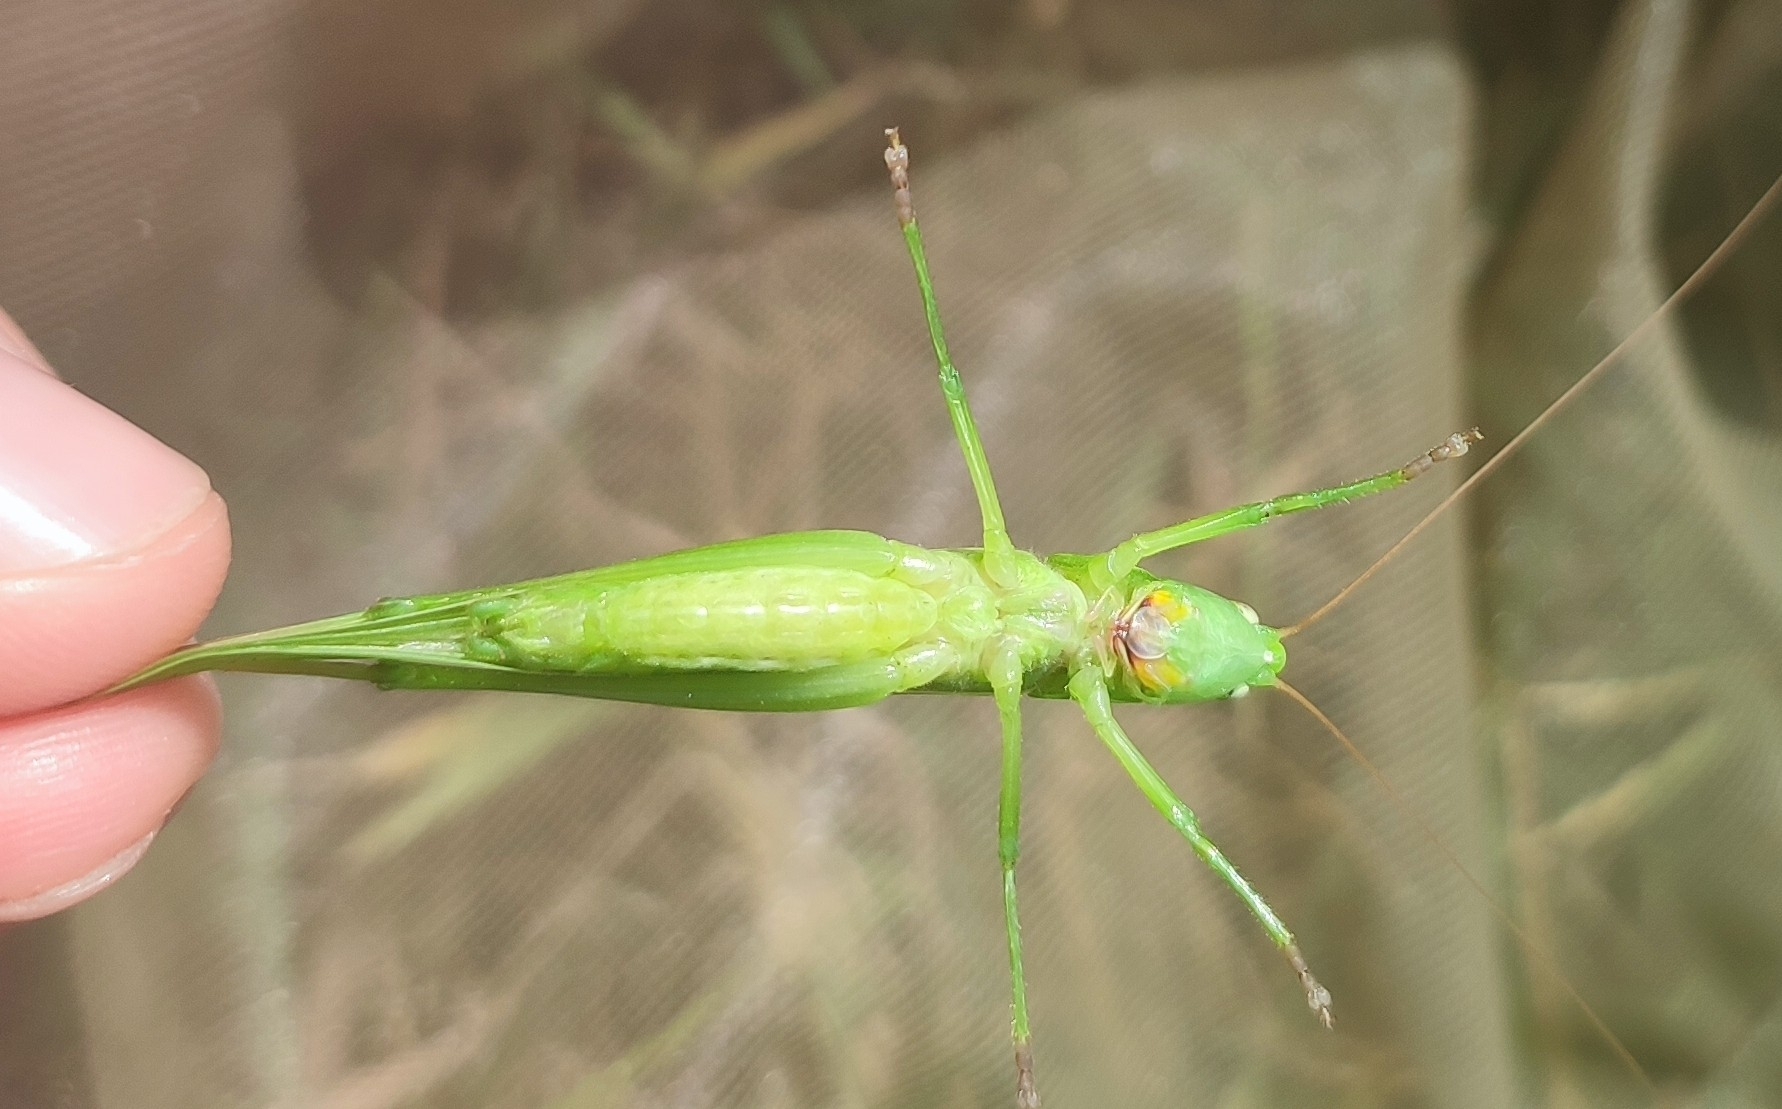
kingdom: Animalia
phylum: Arthropoda
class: Insecta
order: Orthoptera
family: Tettigoniidae
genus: Ruspolia
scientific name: Ruspolia nitidula
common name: Large conehead
